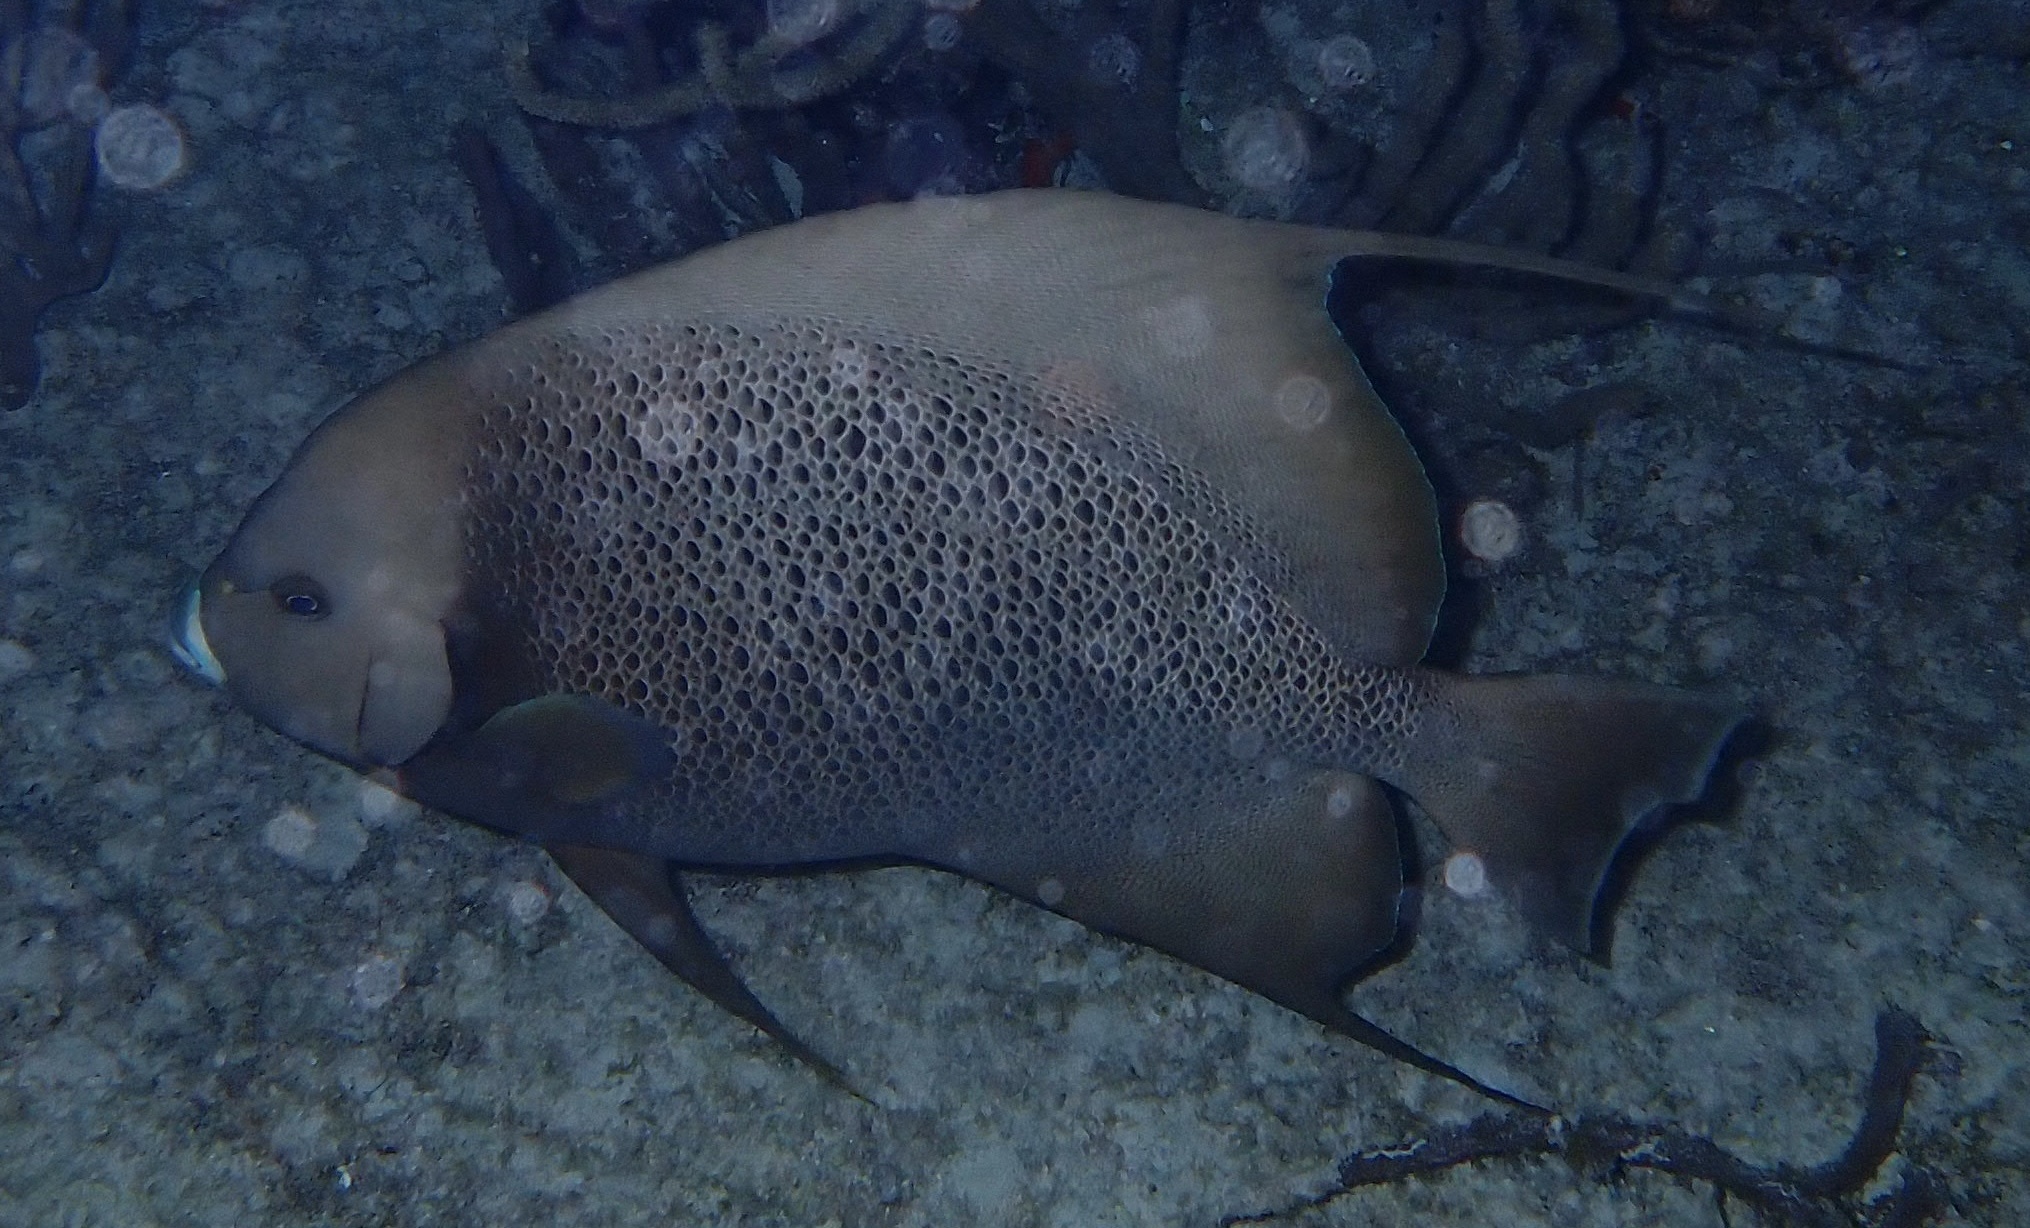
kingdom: Animalia
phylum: Chordata
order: Perciformes
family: Pomacanthidae
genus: Pomacanthus
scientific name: Pomacanthus arcuatus
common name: Gray angelfish
